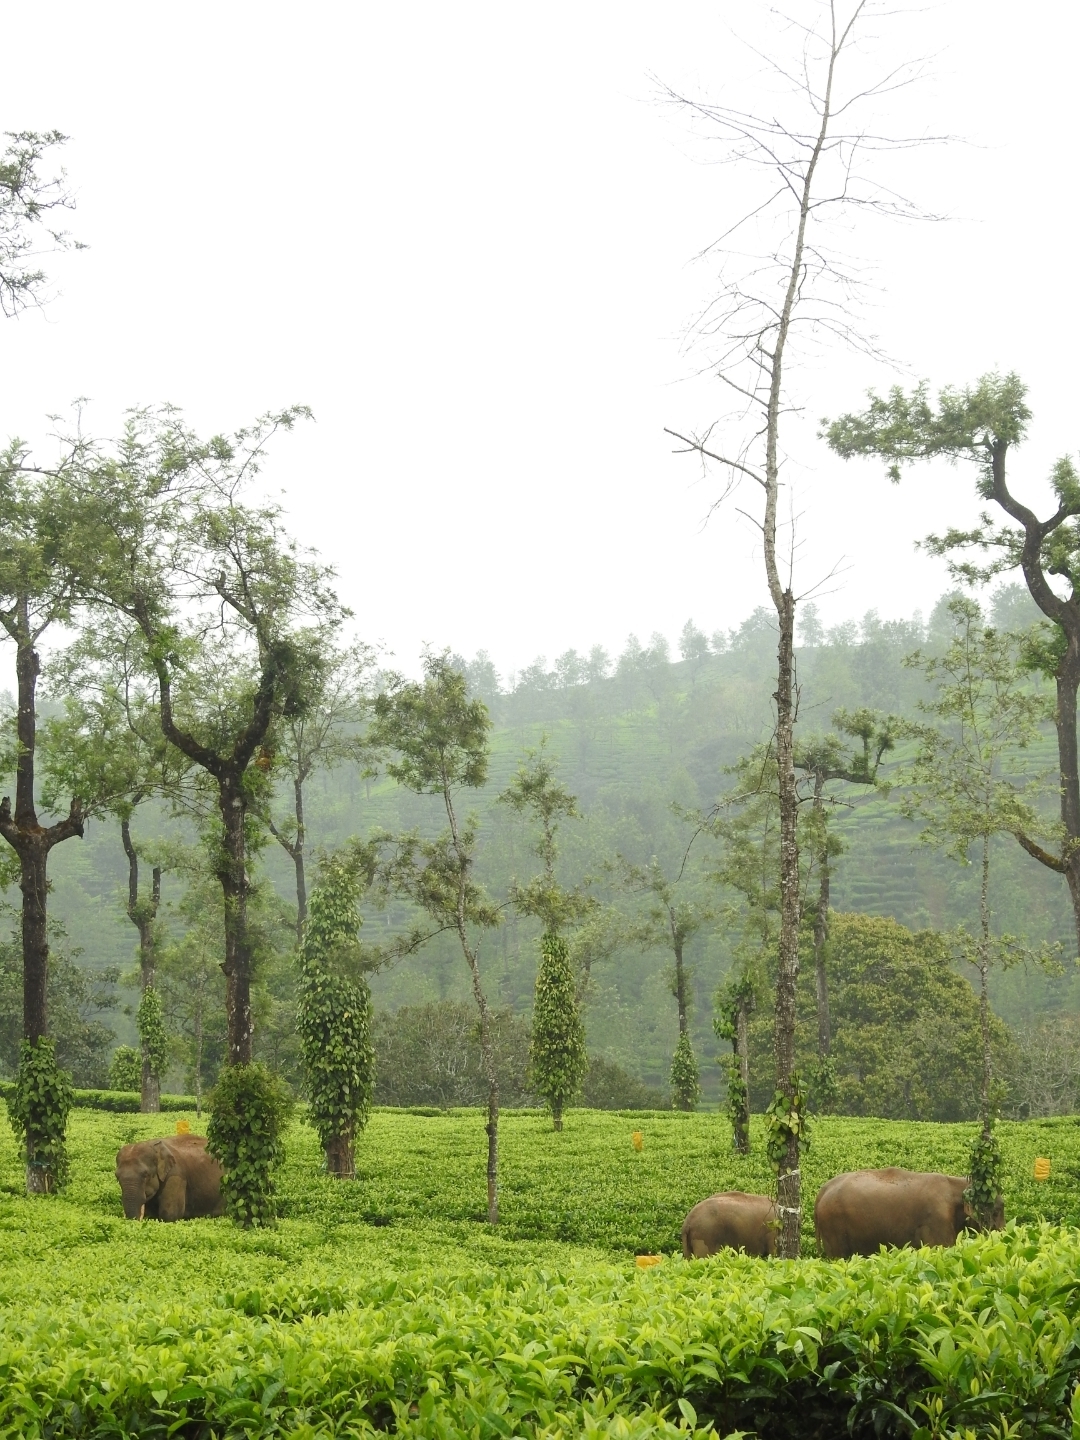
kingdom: Animalia
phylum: Chordata
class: Mammalia
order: Proboscidea
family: Elephantidae
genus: Elephas
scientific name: Elephas maximus
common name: Asian elephant
